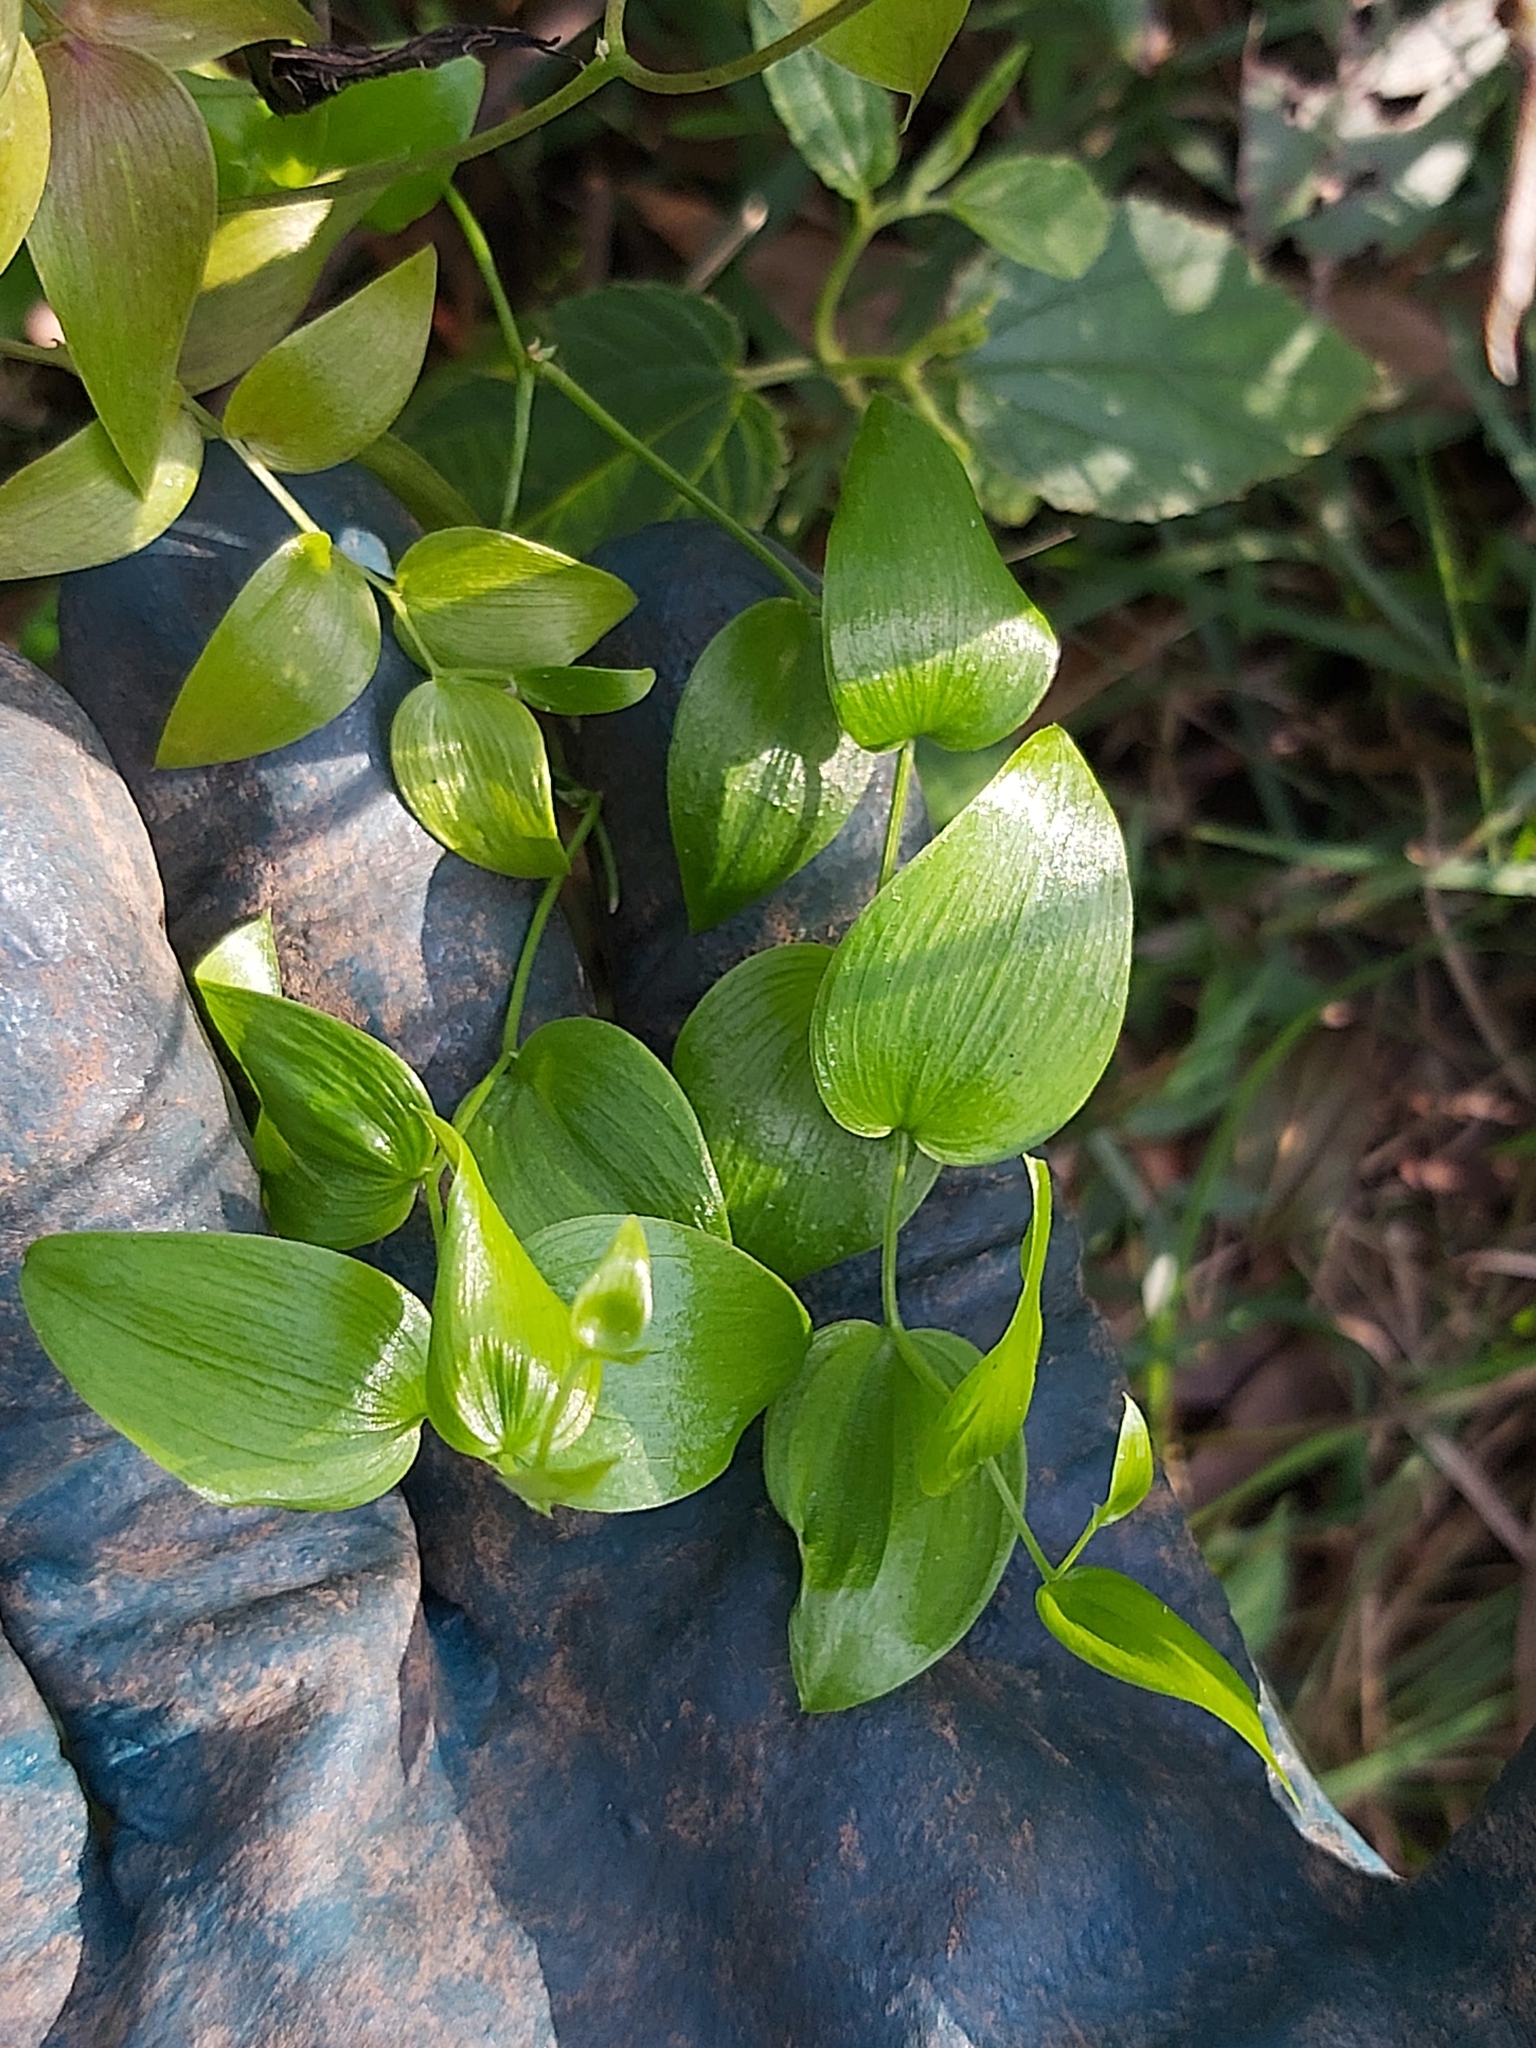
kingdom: Plantae
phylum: Tracheophyta
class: Liliopsida
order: Asparagales
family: Asparagaceae
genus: Asparagus
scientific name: Asparagus asparagoides
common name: African asparagus fern
